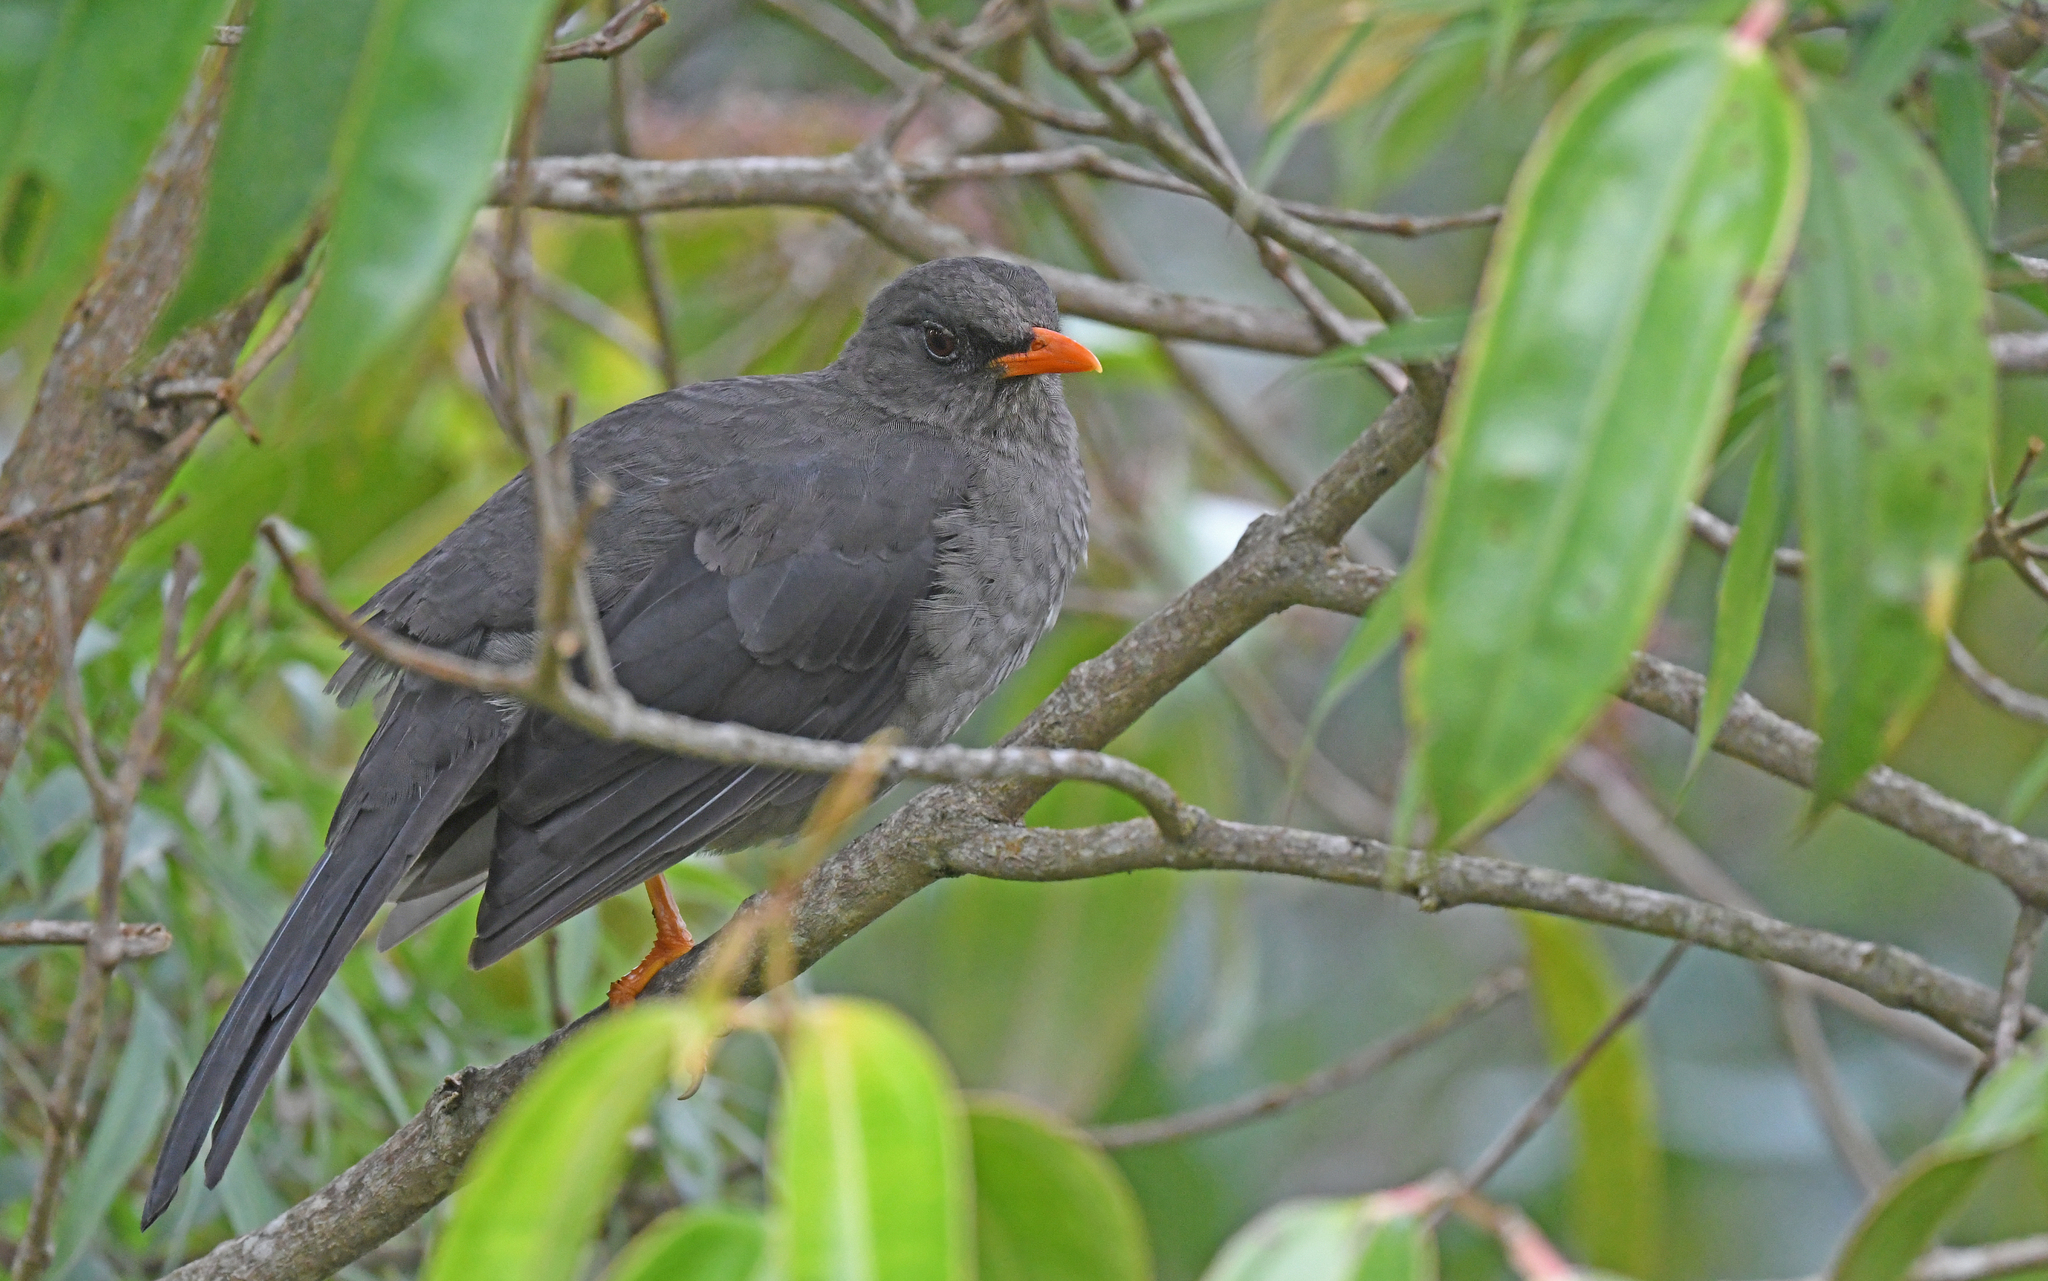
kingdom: Animalia
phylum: Chordata
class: Aves
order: Passeriformes
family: Turdidae
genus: Turdus
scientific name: Turdus fuscater
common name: Great thrush
